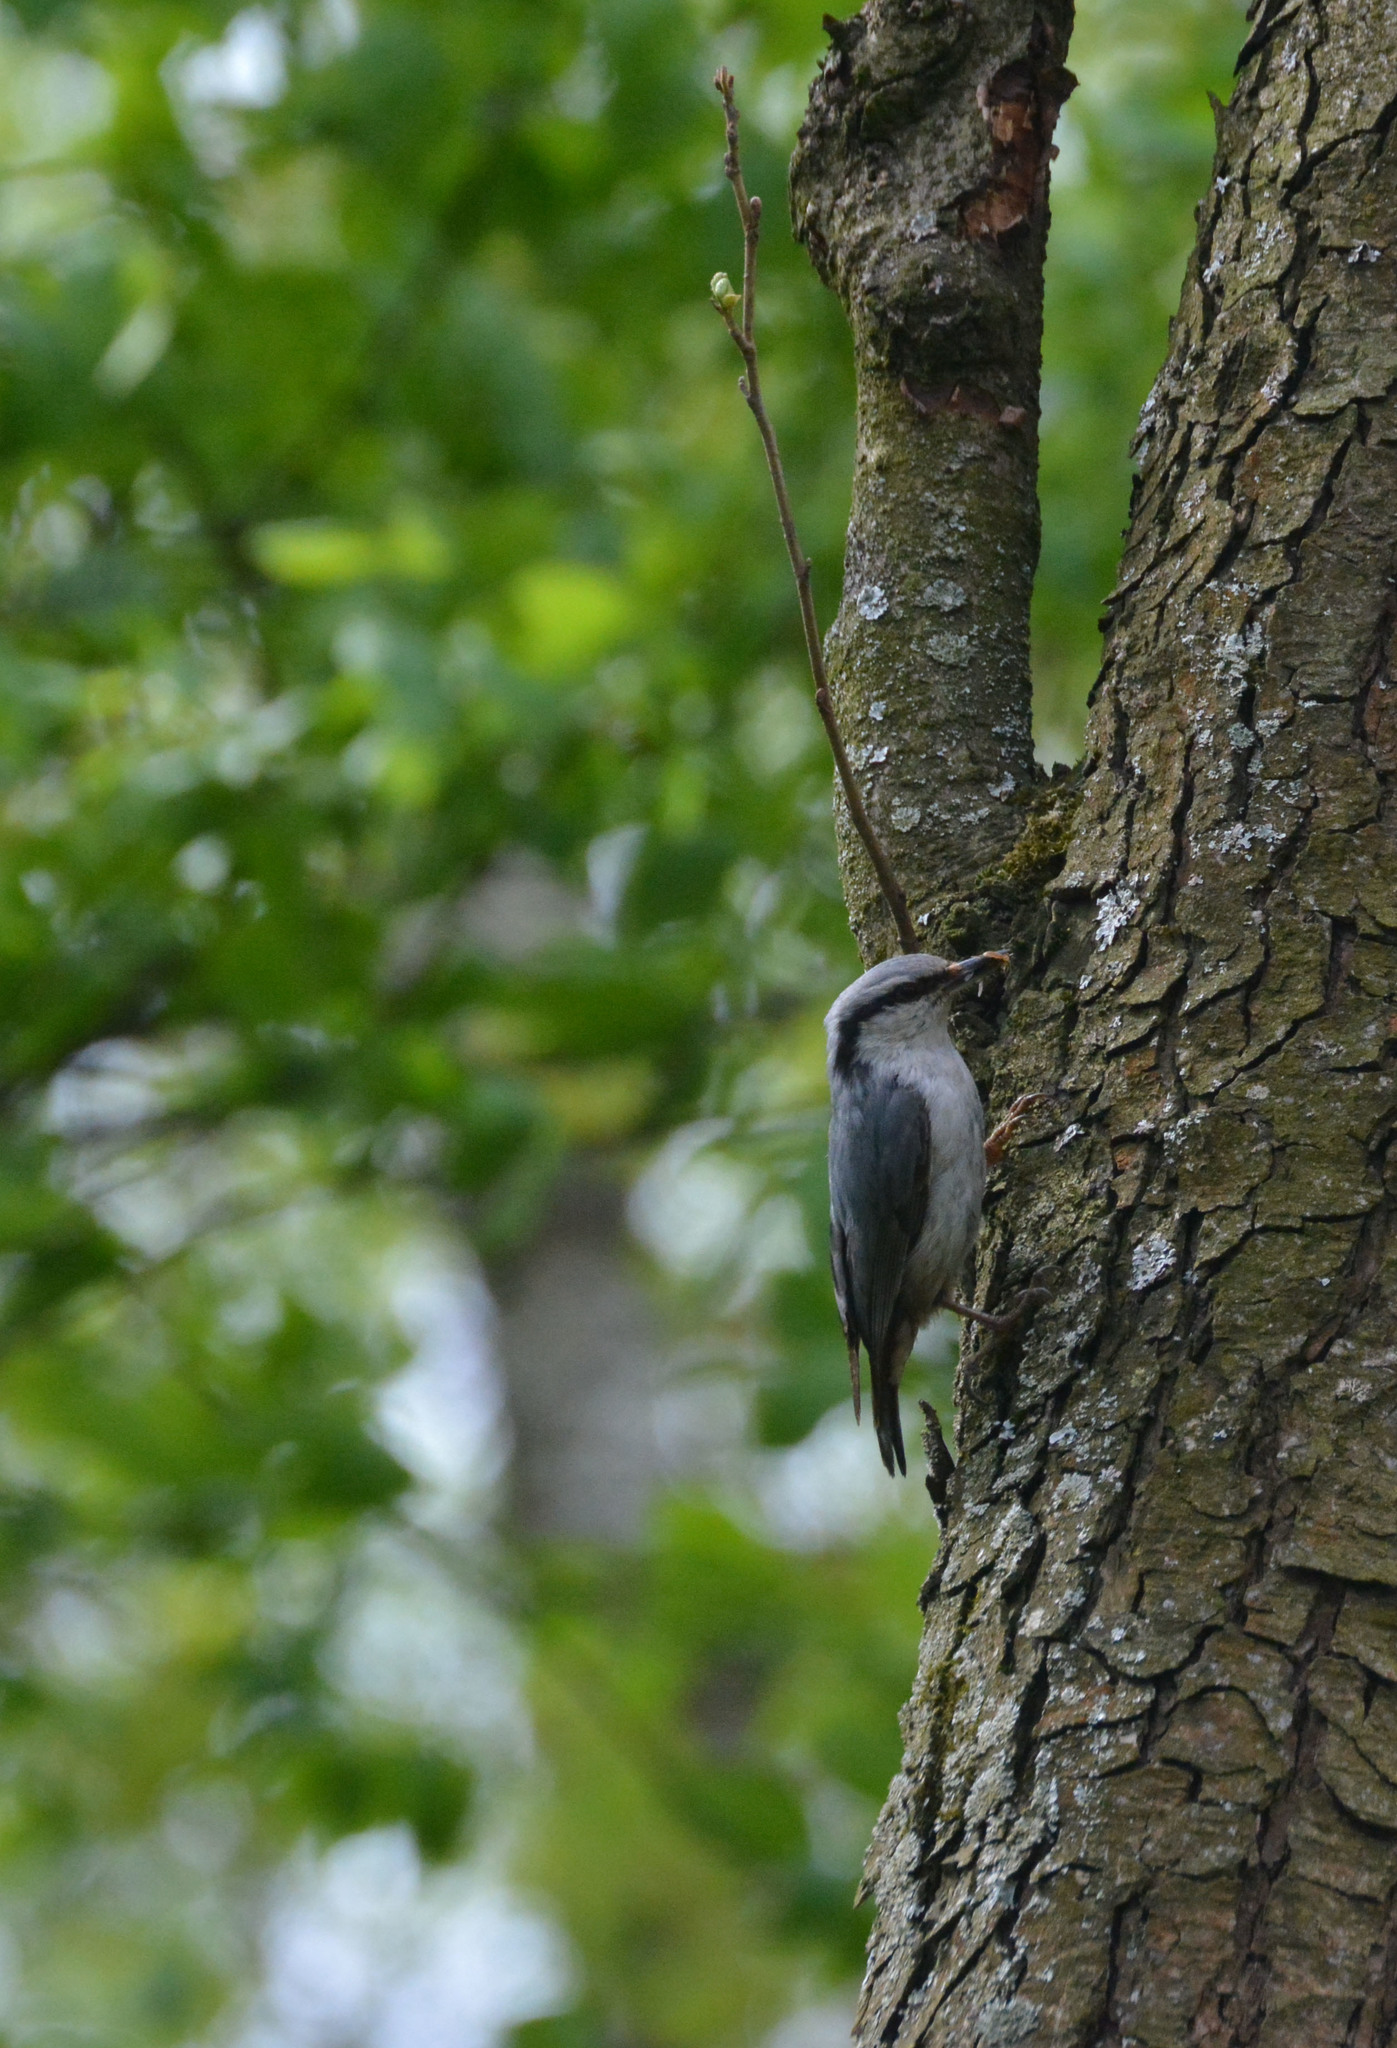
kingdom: Animalia
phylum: Chordata
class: Aves
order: Passeriformes
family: Sittidae
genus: Sitta
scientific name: Sitta europaea
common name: Eurasian nuthatch
